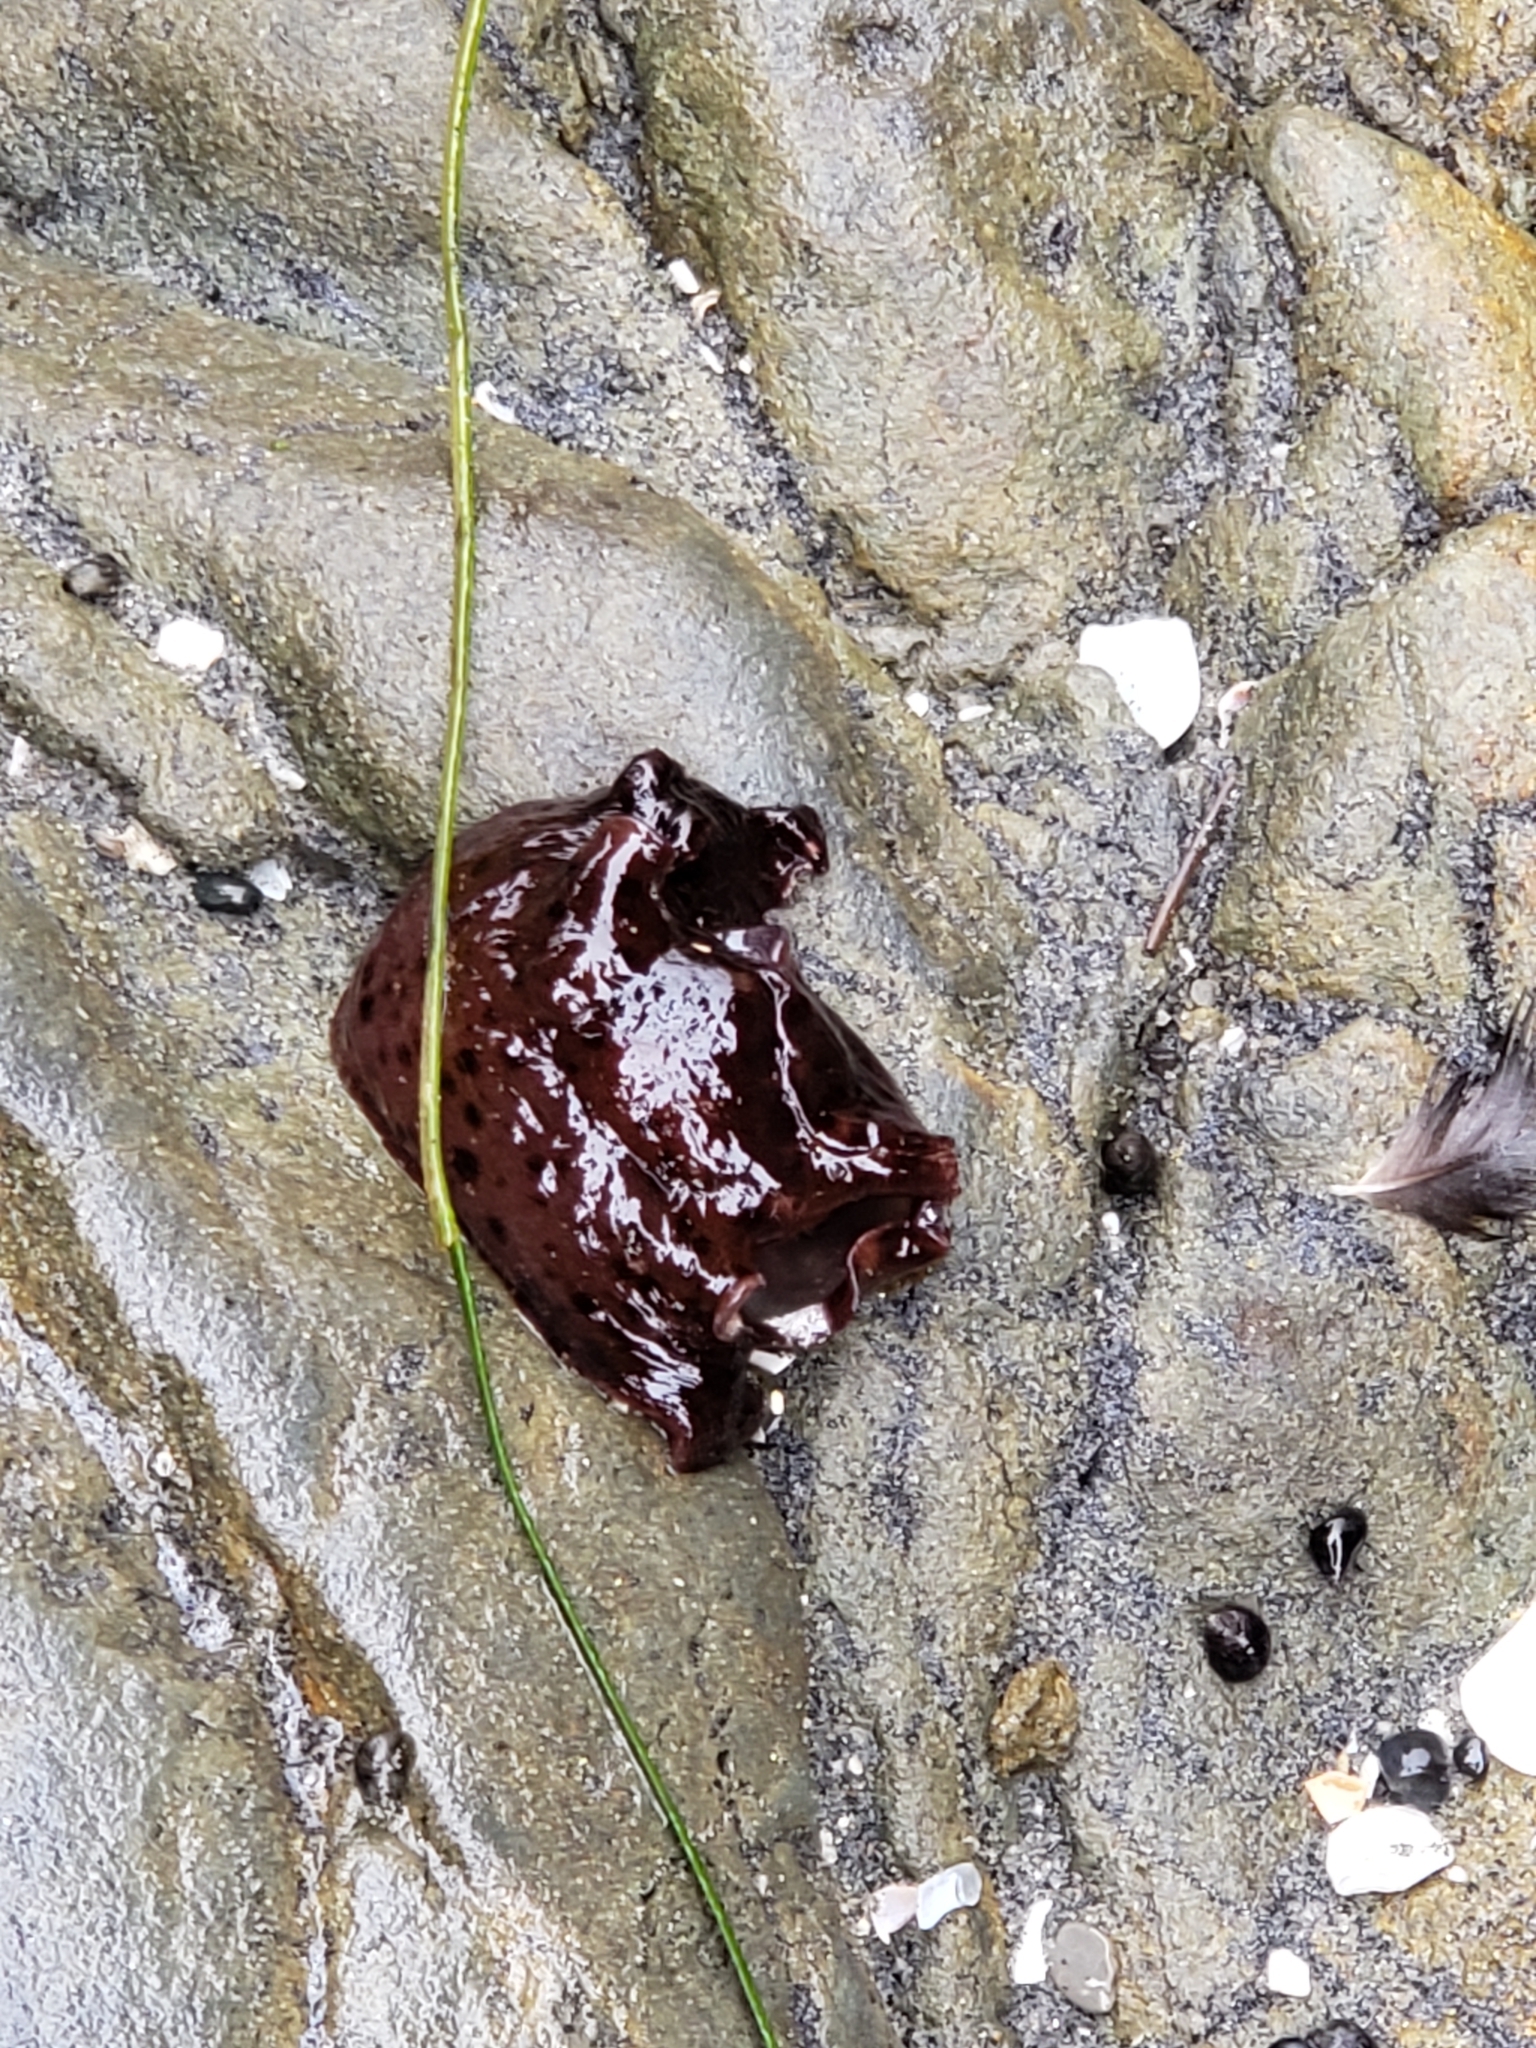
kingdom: Animalia
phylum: Mollusca
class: Gastropoda
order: Aplysiida
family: Aplysiidae
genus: Aplysia
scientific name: Aplysia californica
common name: California seahare
